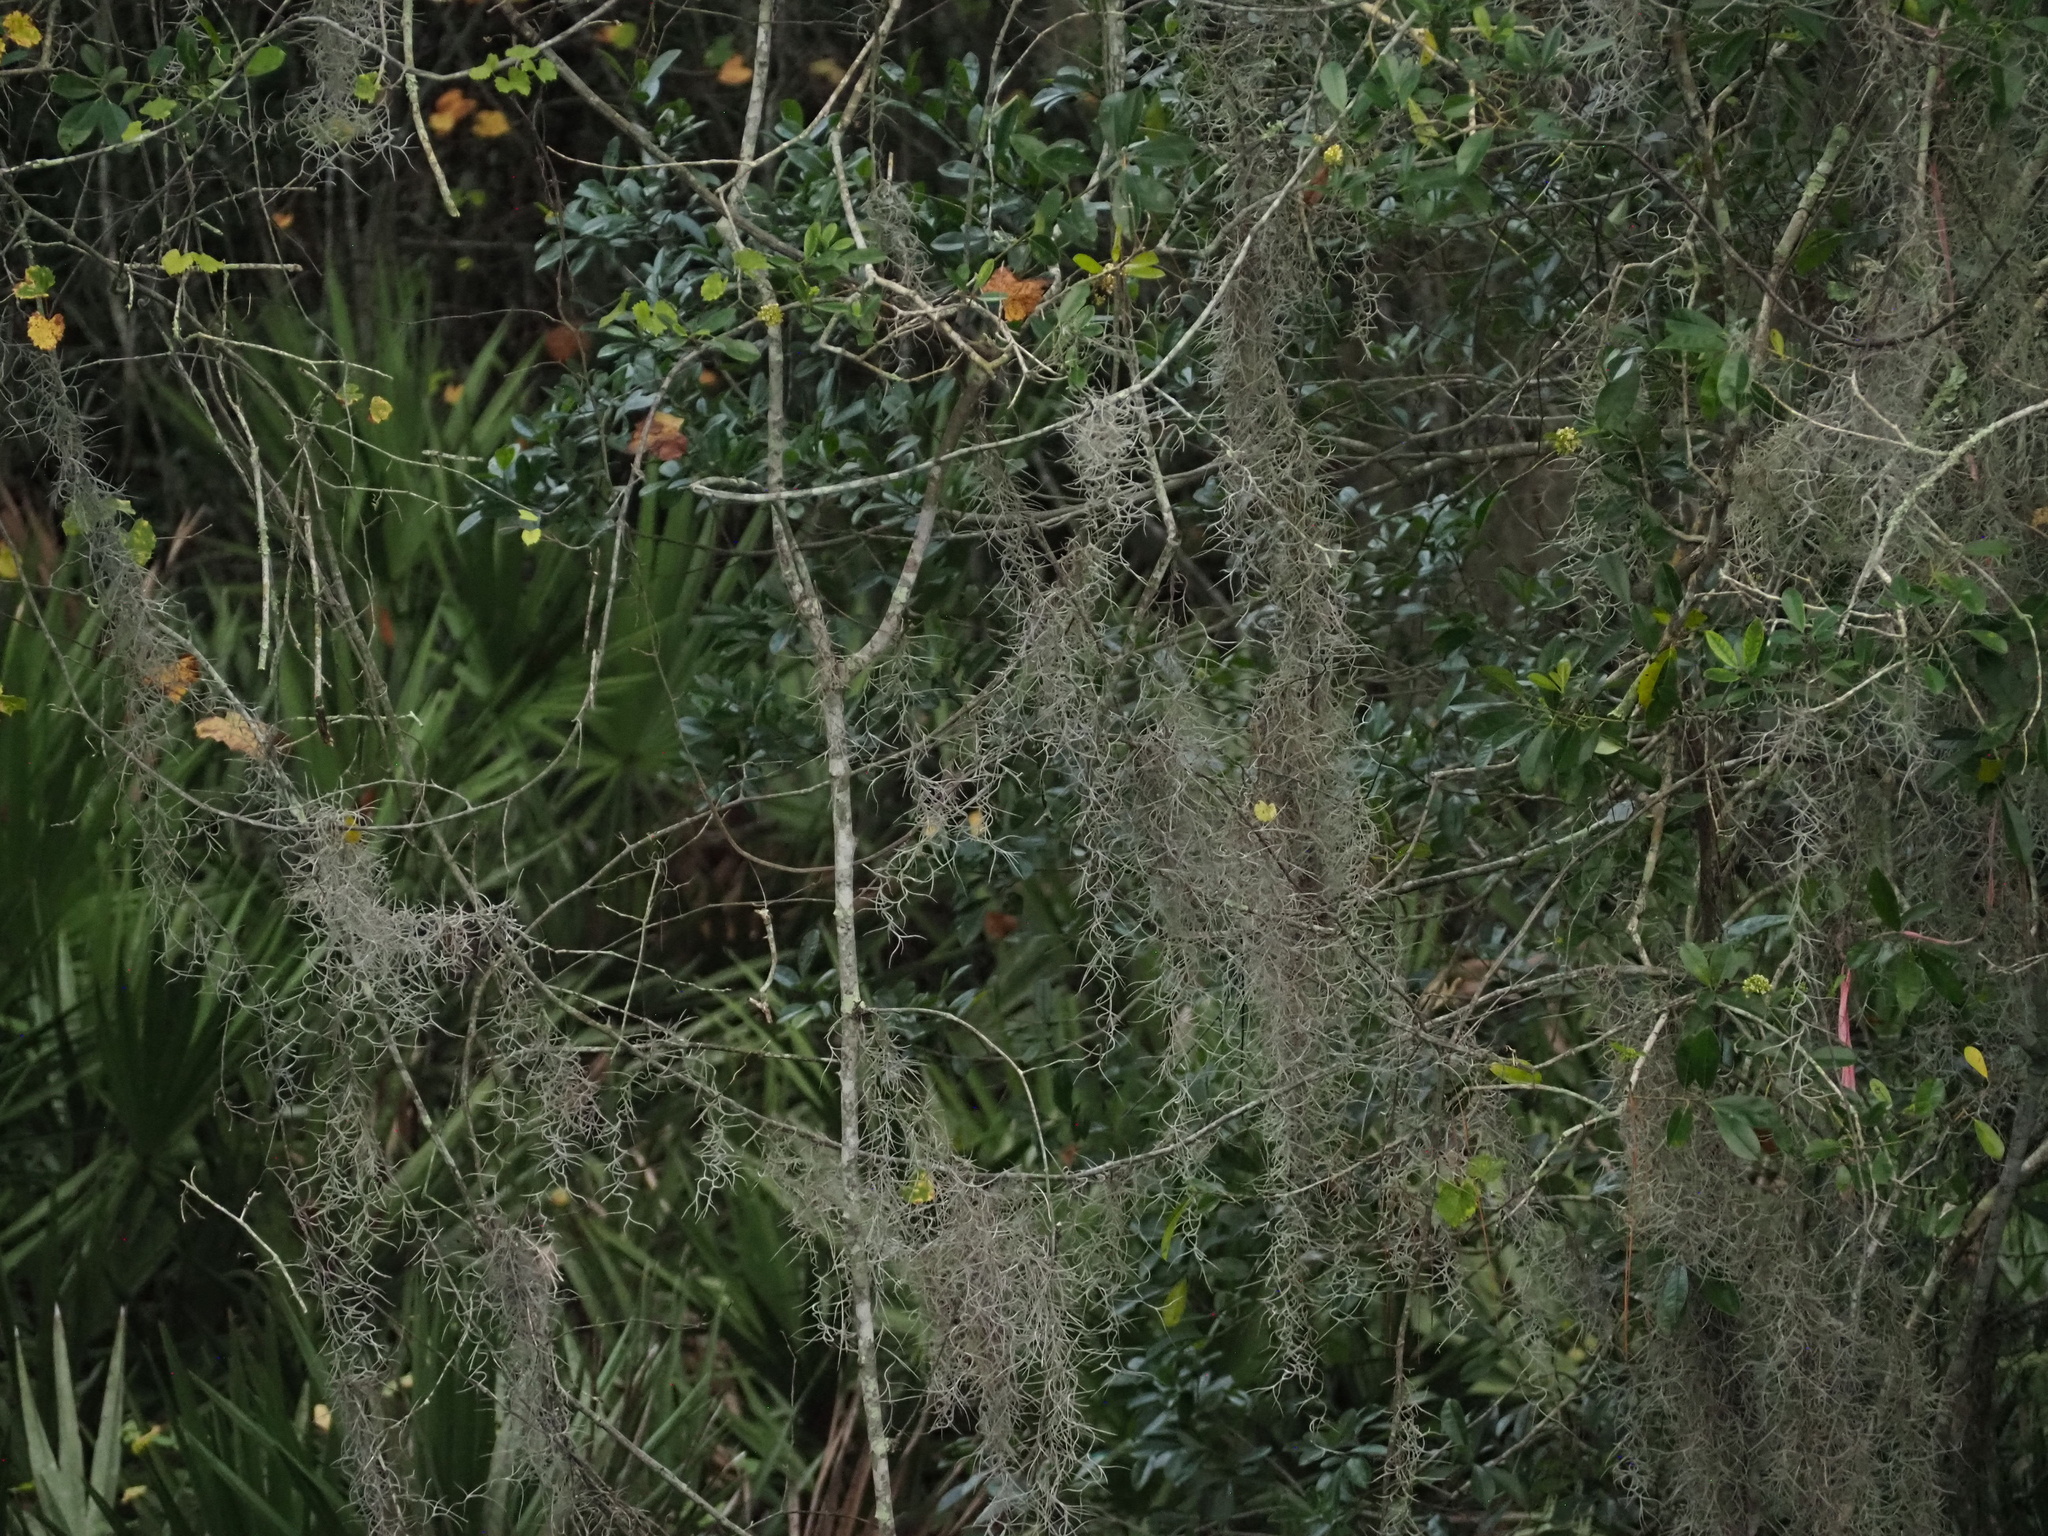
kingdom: Plantae
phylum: Tracheophyta
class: Liliopsida
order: Poales
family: Bromeliaceae
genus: Tillandsia
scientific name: Tillandsia usneoides
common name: Spanish moss
